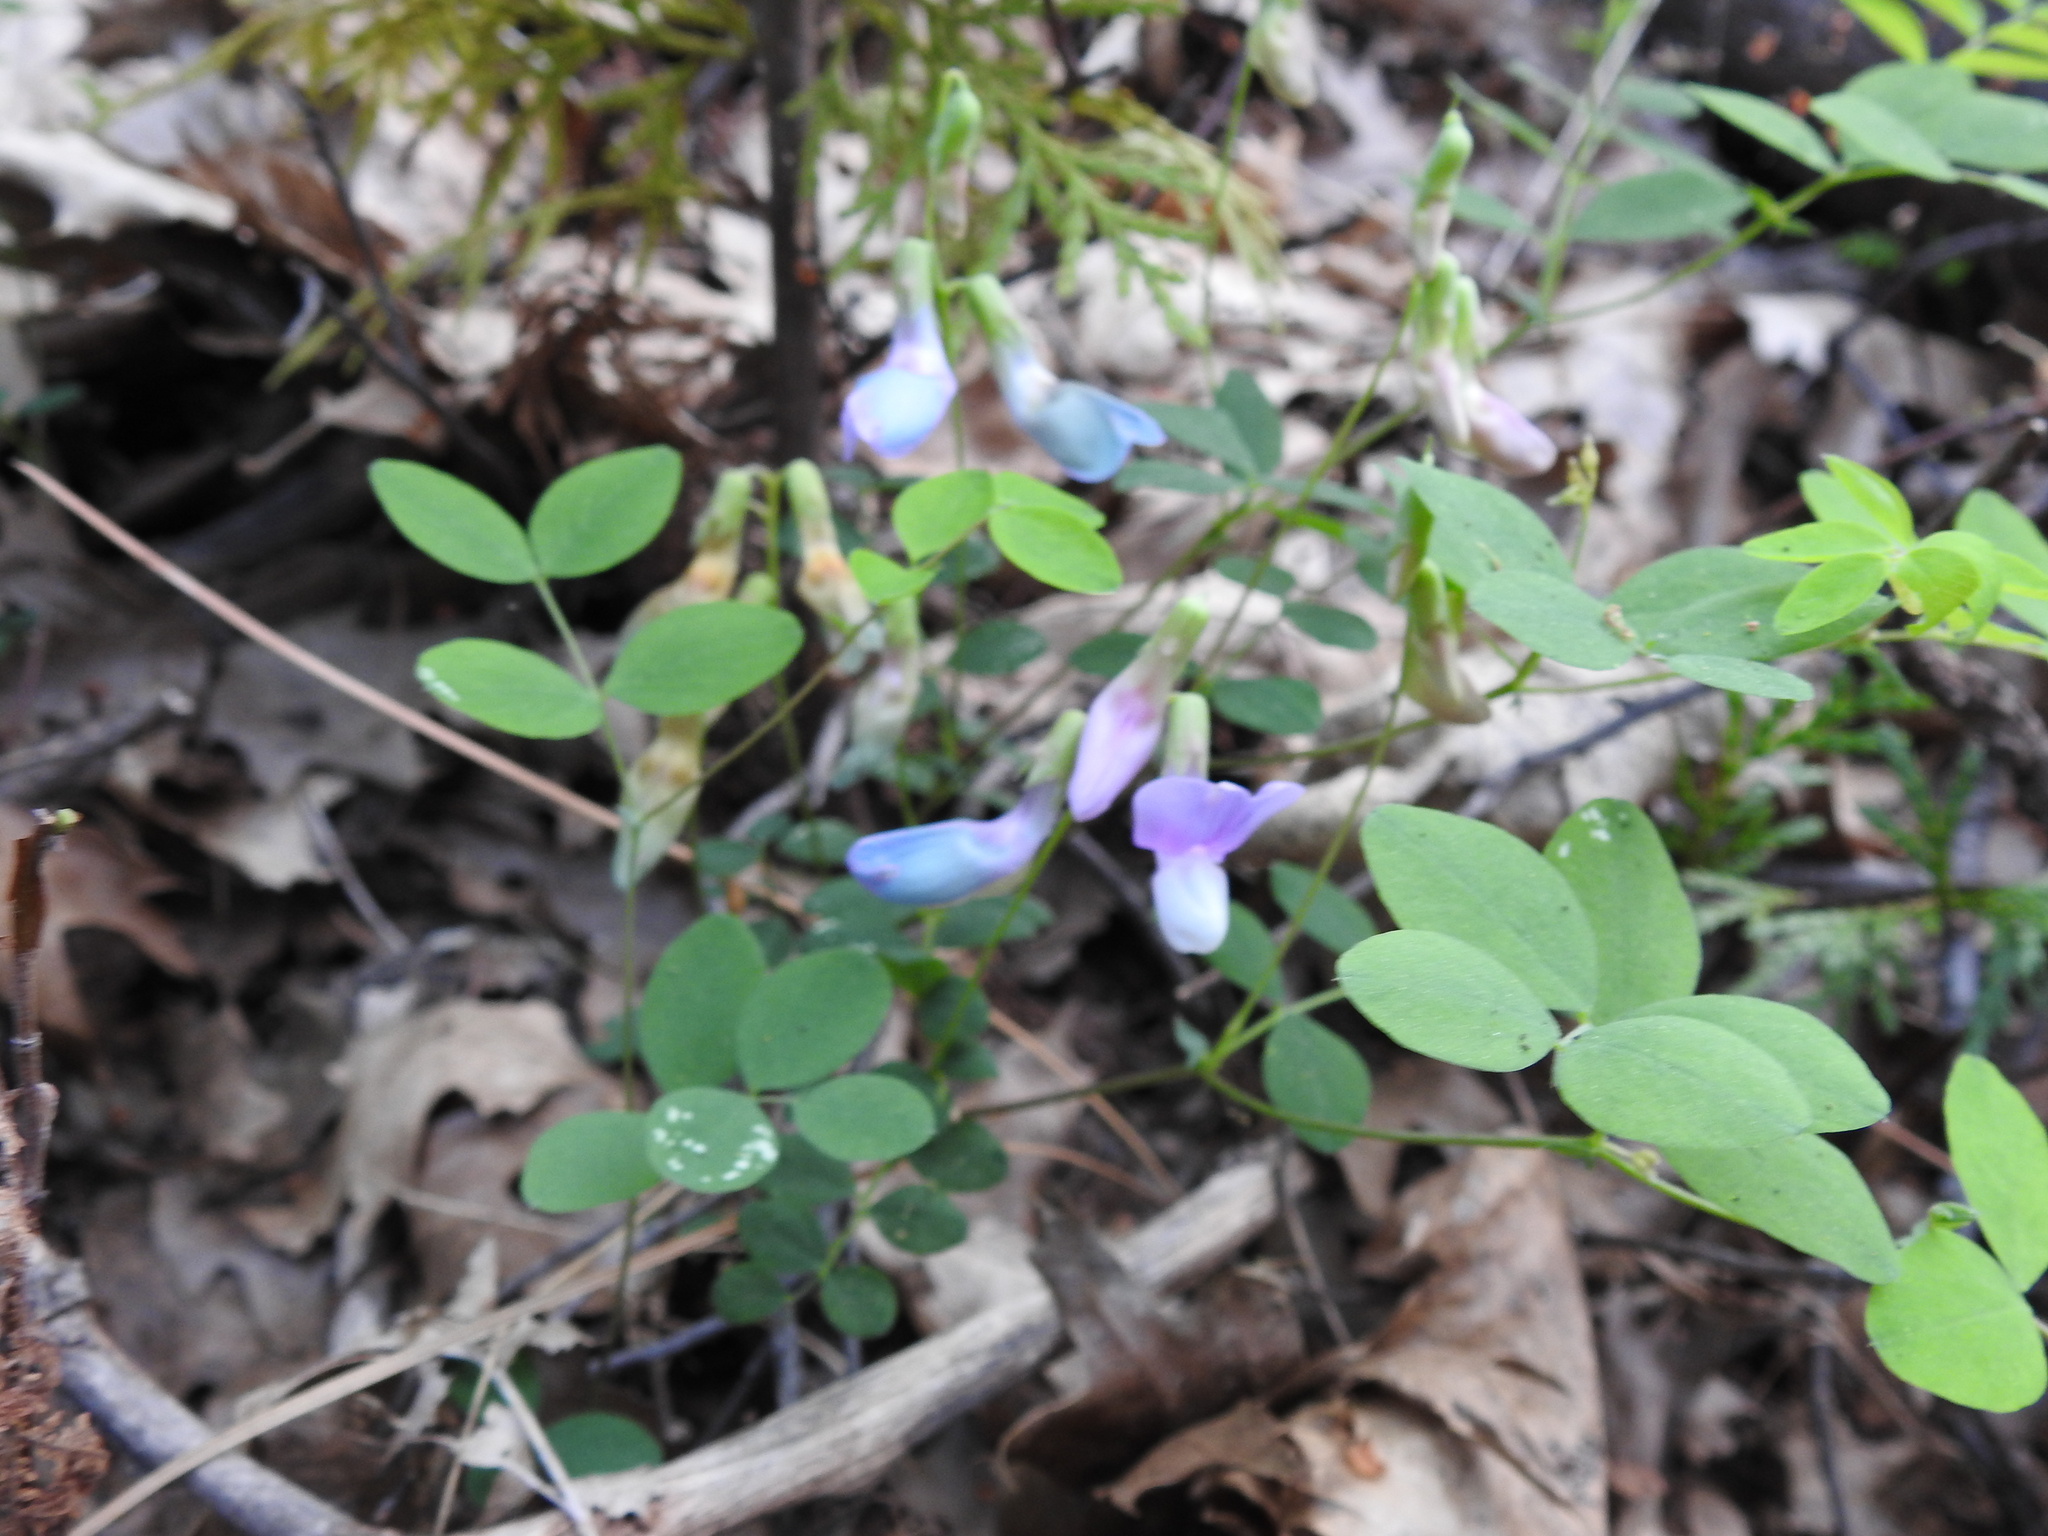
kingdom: Plantae
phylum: Tracheophyta
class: Magnoliopsida
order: Fabales
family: Fabaceae
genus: Lathyrus
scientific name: Lathyrus nevadensis
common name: Sierra nevada peavine
